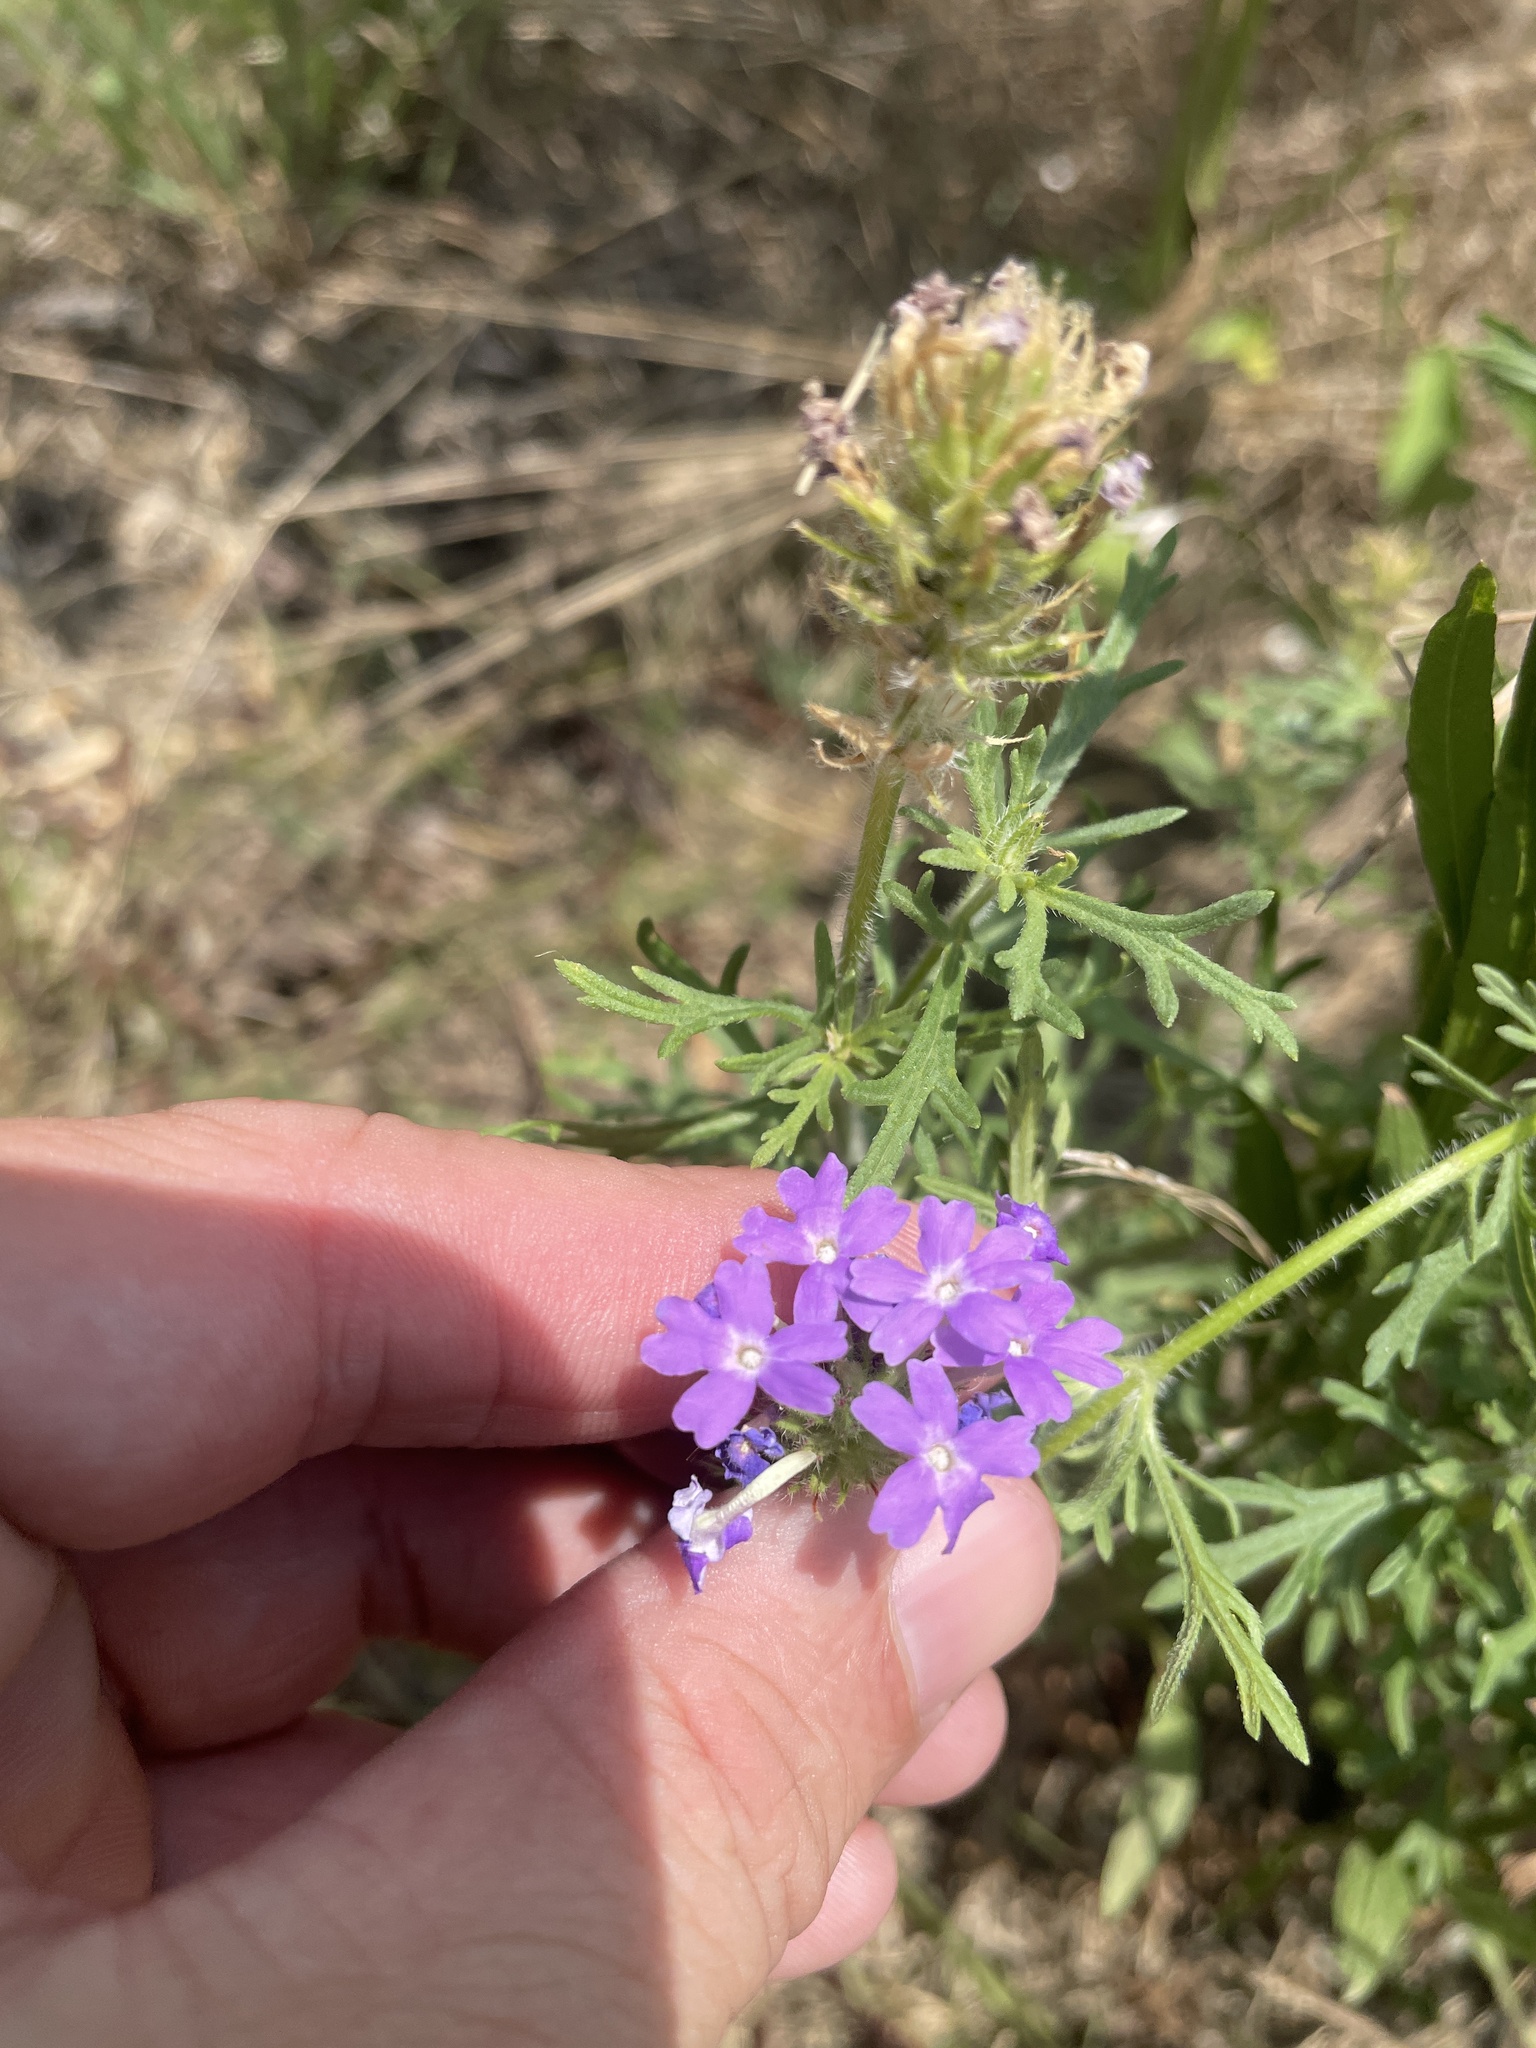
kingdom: Plantae
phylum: Tracheophyta
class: Magnoliopsida
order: Lamiales
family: Verbenaceae
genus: Verbena
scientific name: Verbena bipinnatifida
